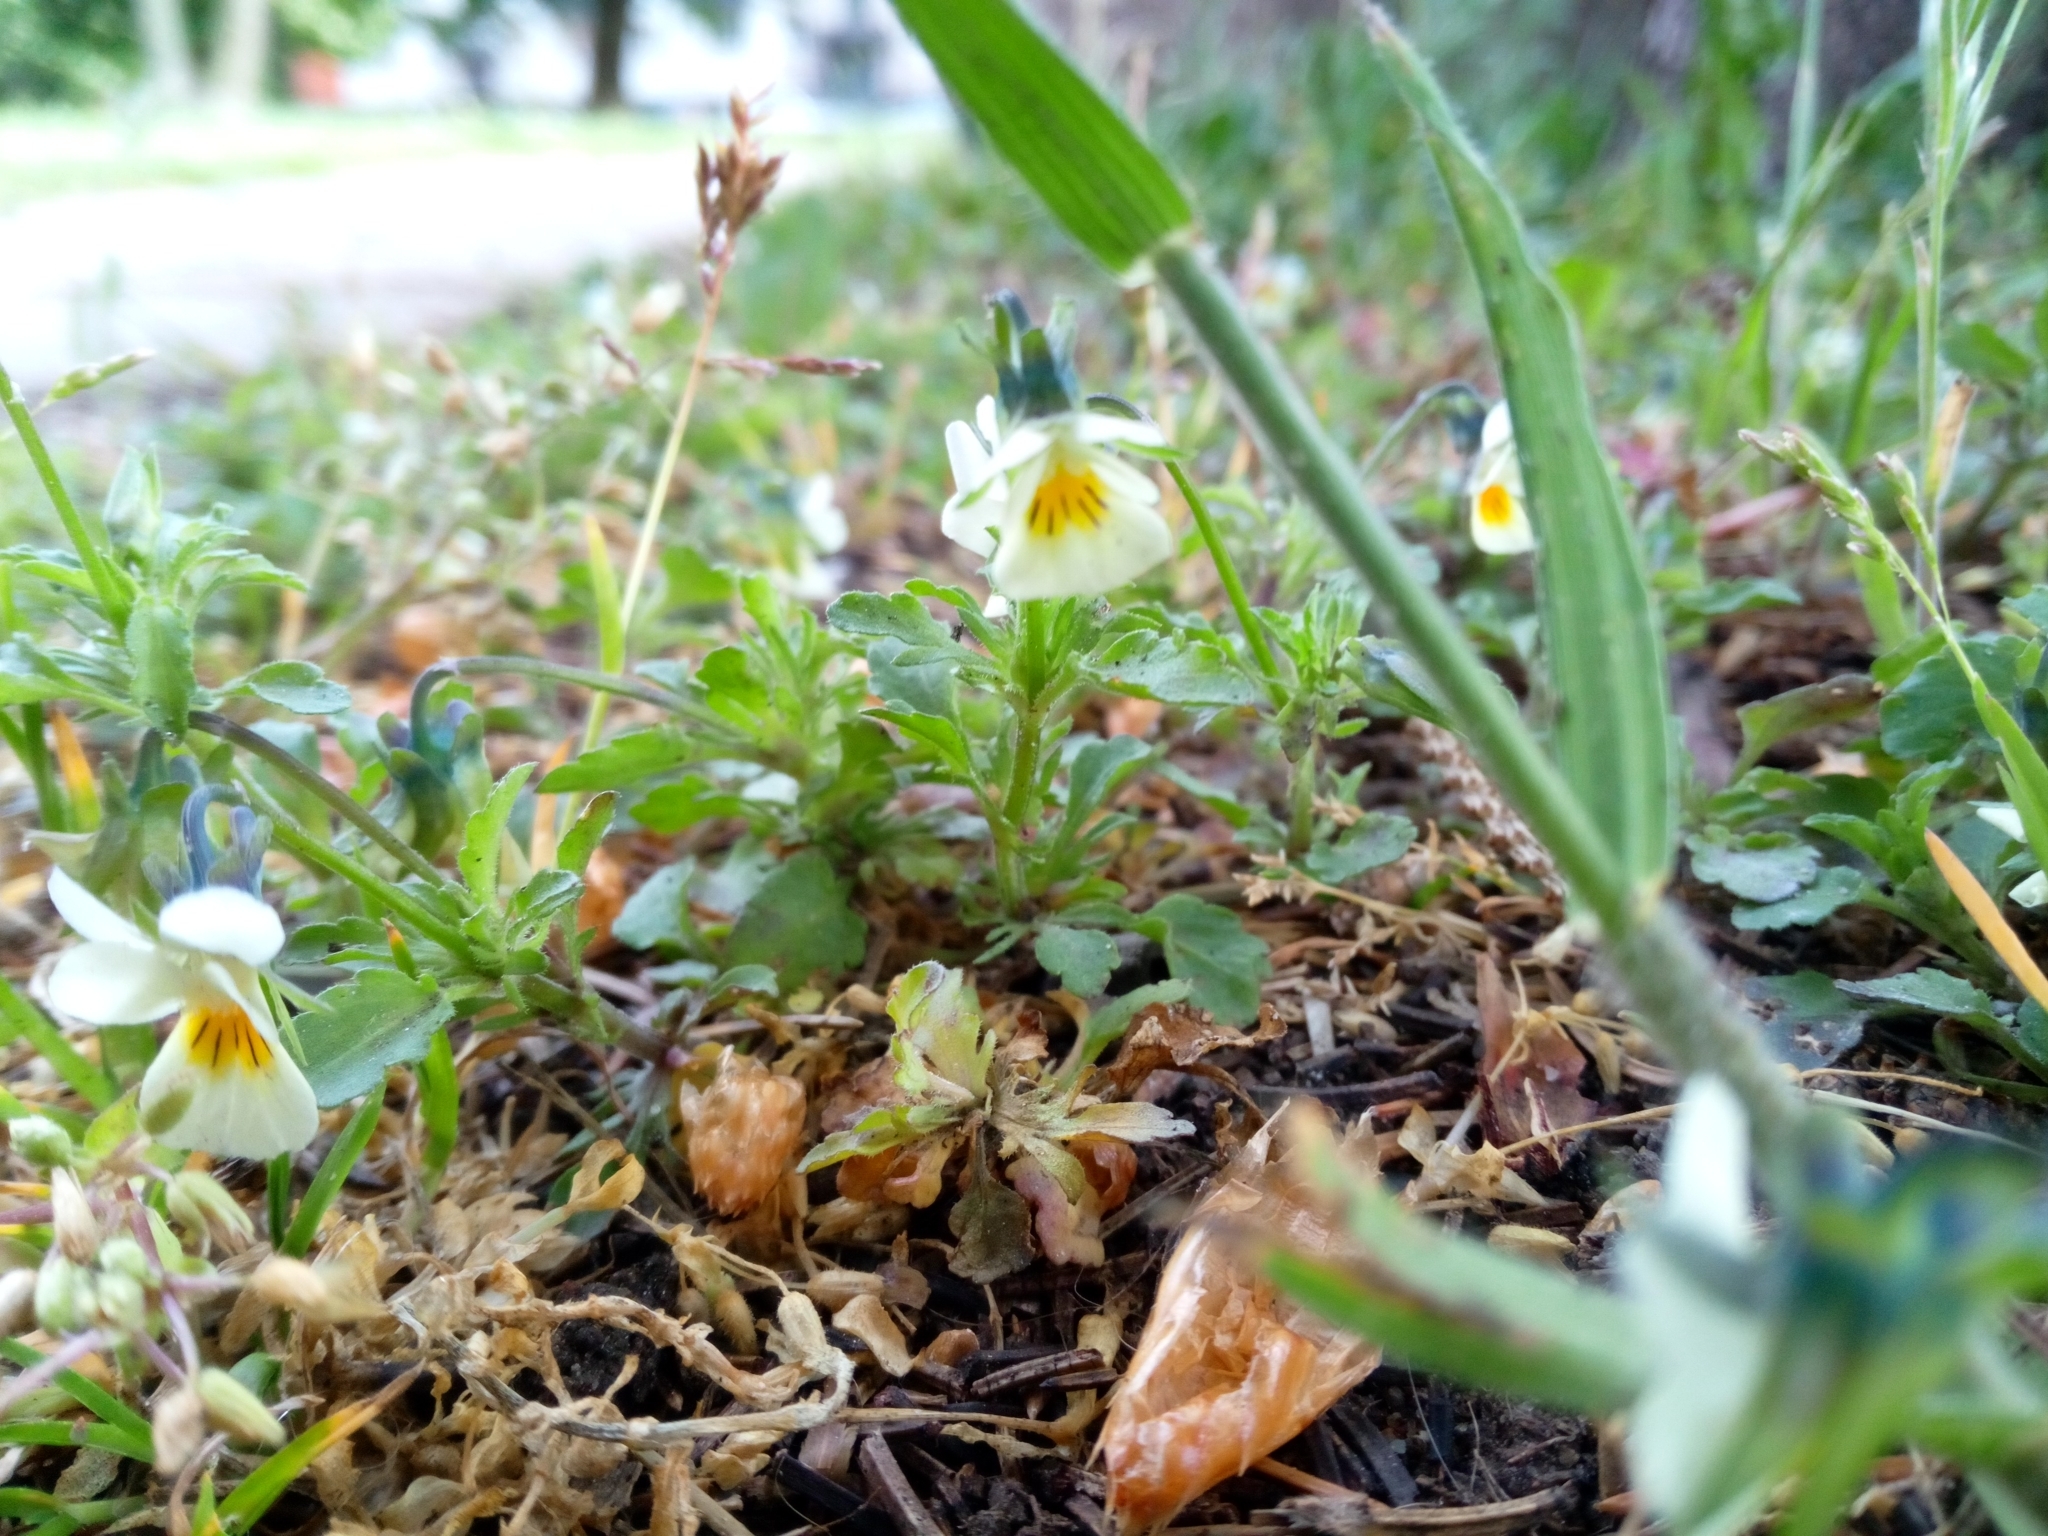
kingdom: Plantae
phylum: Tracheophyta
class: Magnoliopsida
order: Malpighiales
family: Violaceae
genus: Viola
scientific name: Viola arvensis
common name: Field pansy
